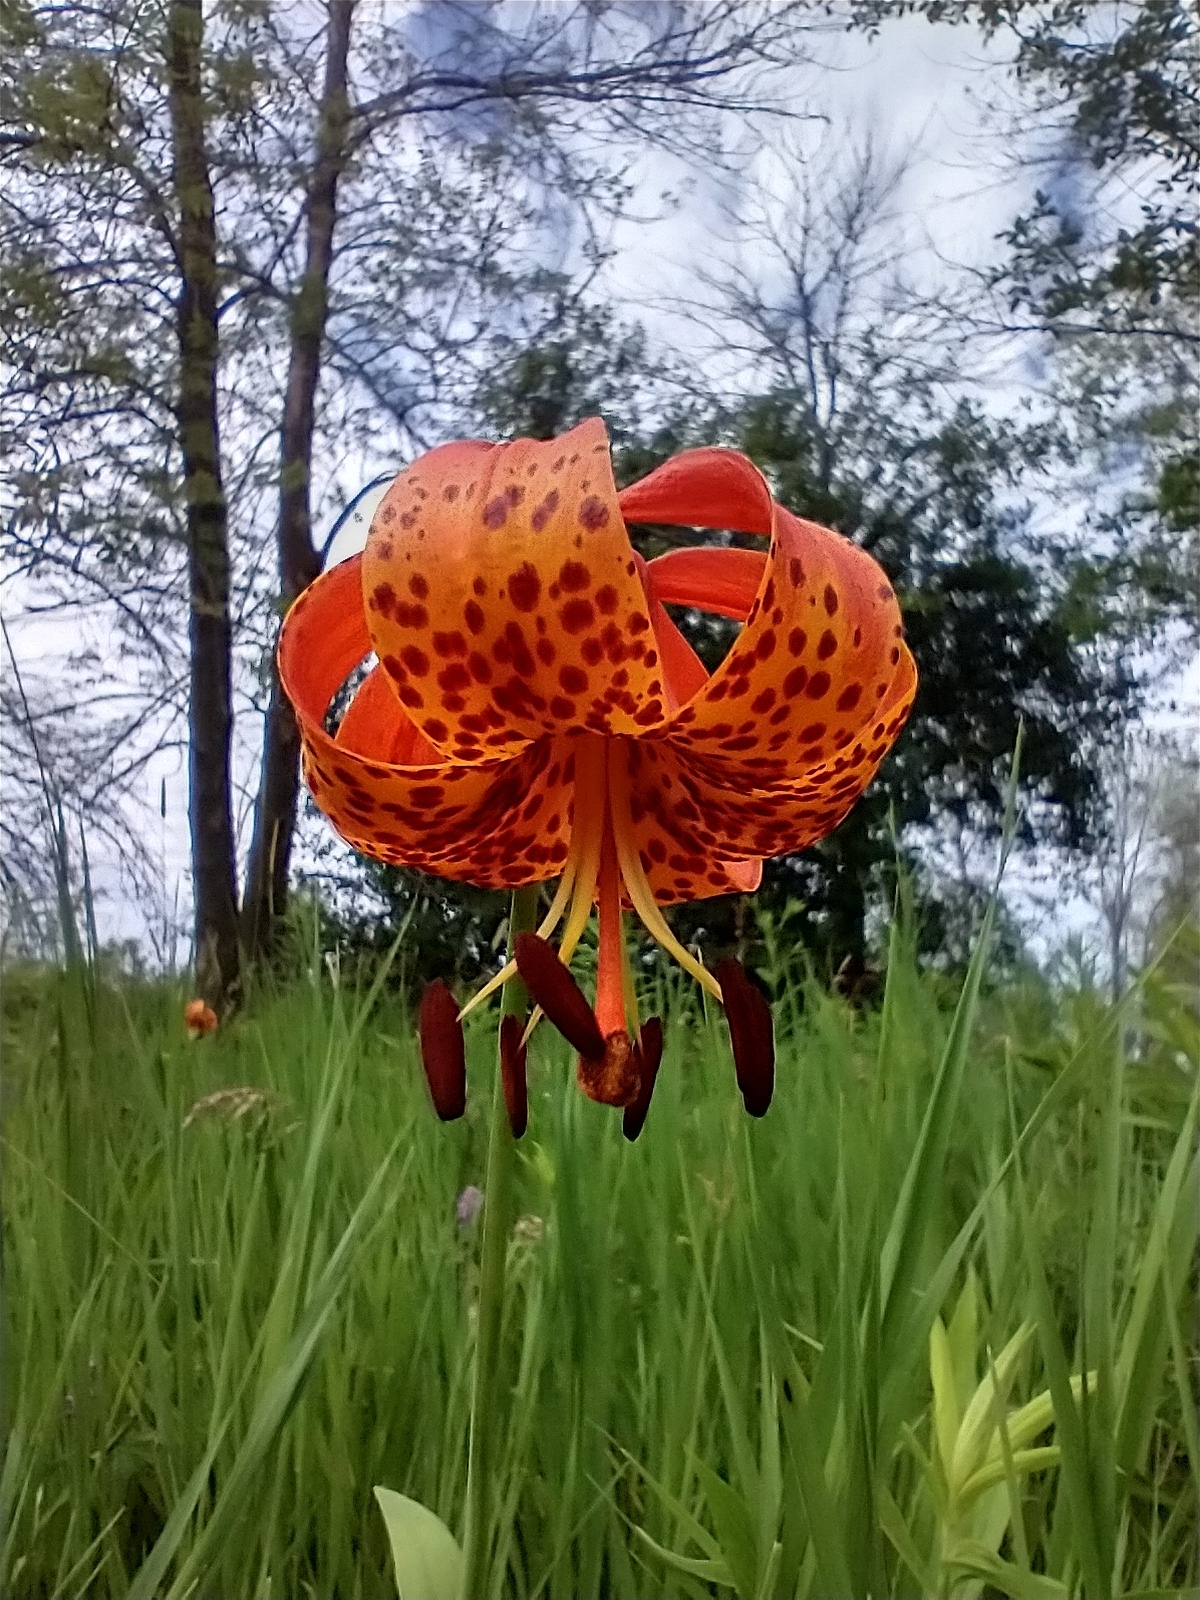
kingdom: Plantae
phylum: Tracheophyta
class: Liliopsida
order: Liliales
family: Liliaceae
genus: Lilium
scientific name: Lilium michiganense
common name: Michigan lily
